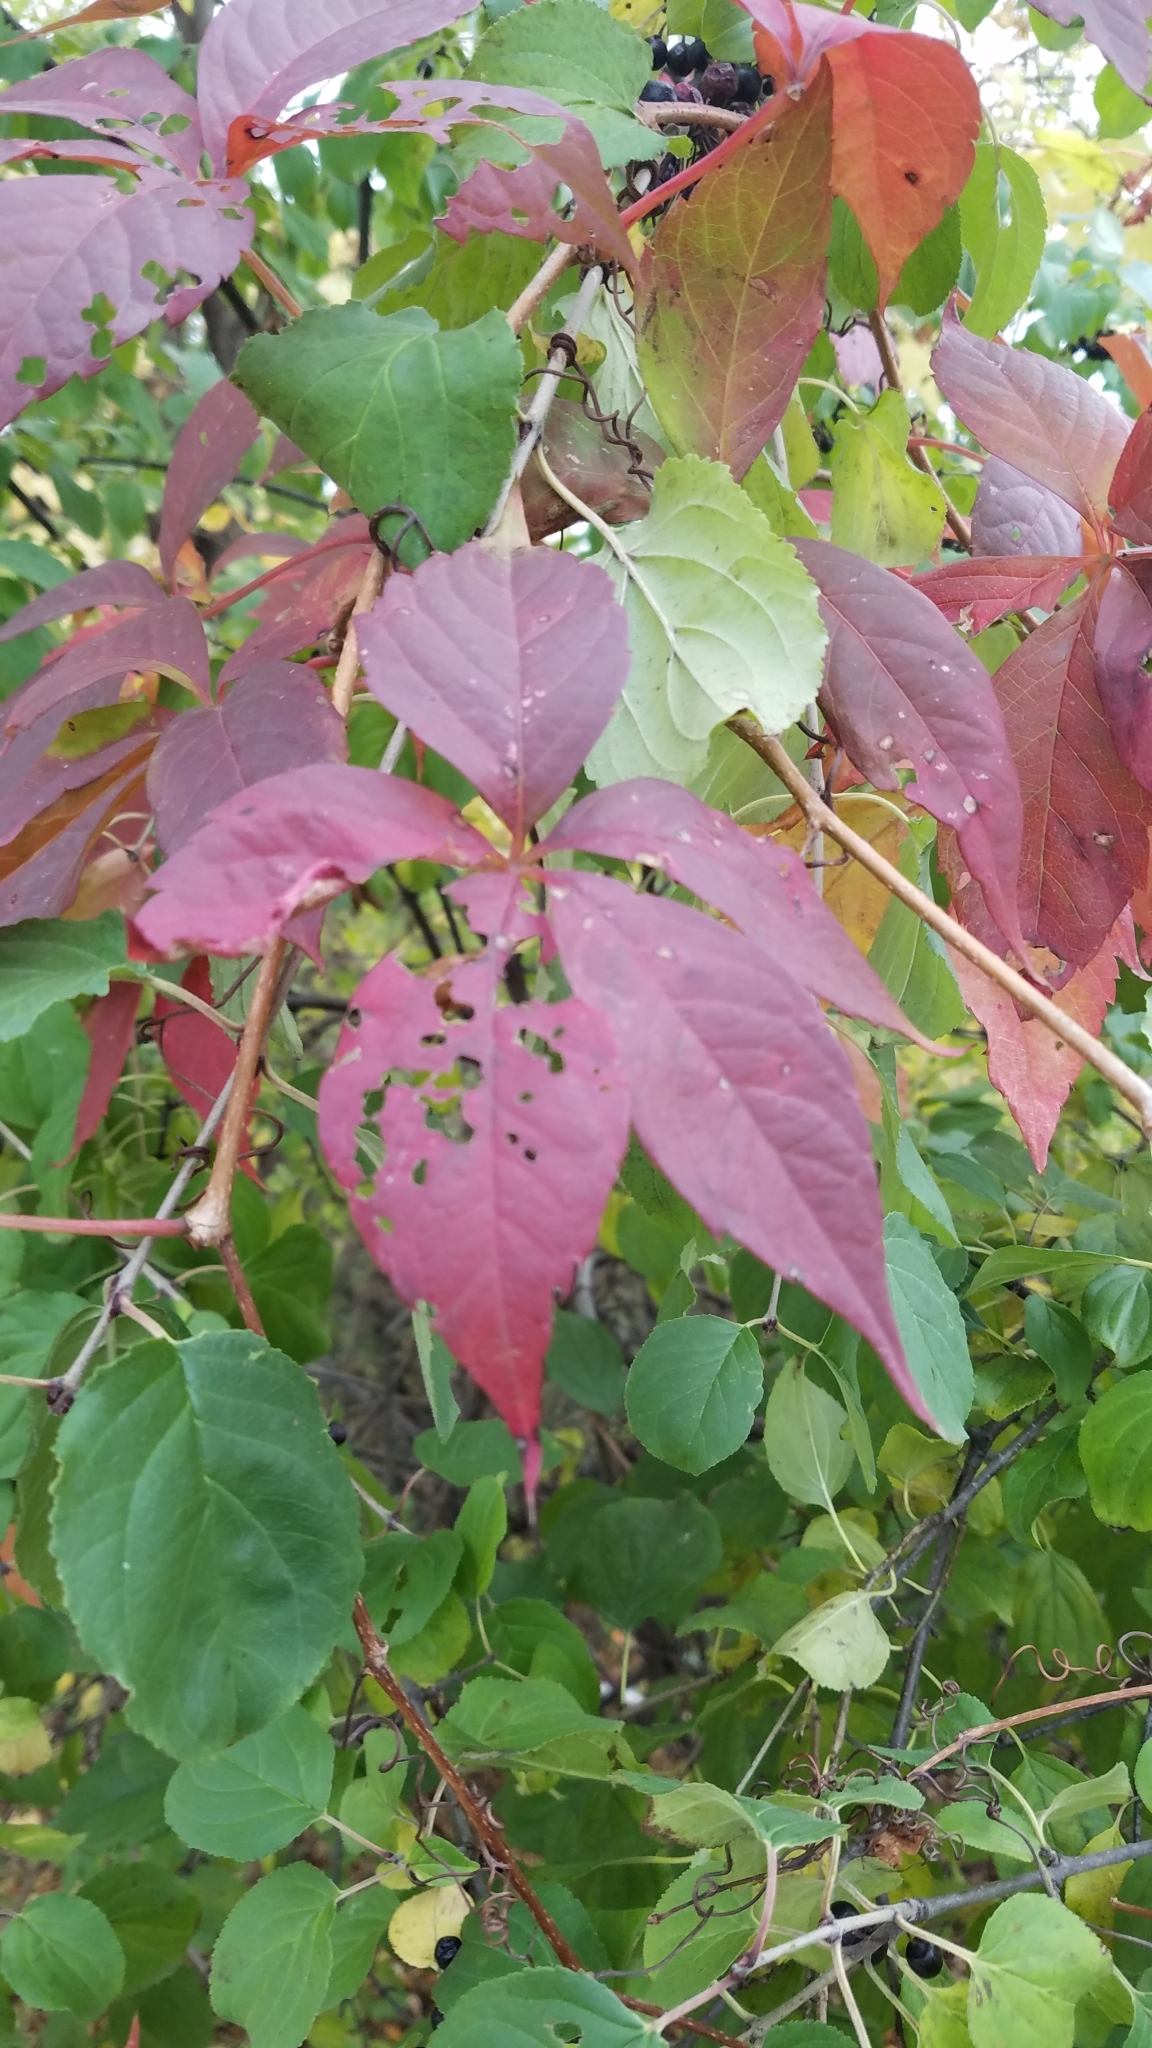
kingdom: Plantae
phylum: Tracheophyta
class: Magnoliopsida
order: Vitales
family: Vitaceae
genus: Parthenocissus
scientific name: Parthenocissus quinquefolia
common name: Virginia-creeper
